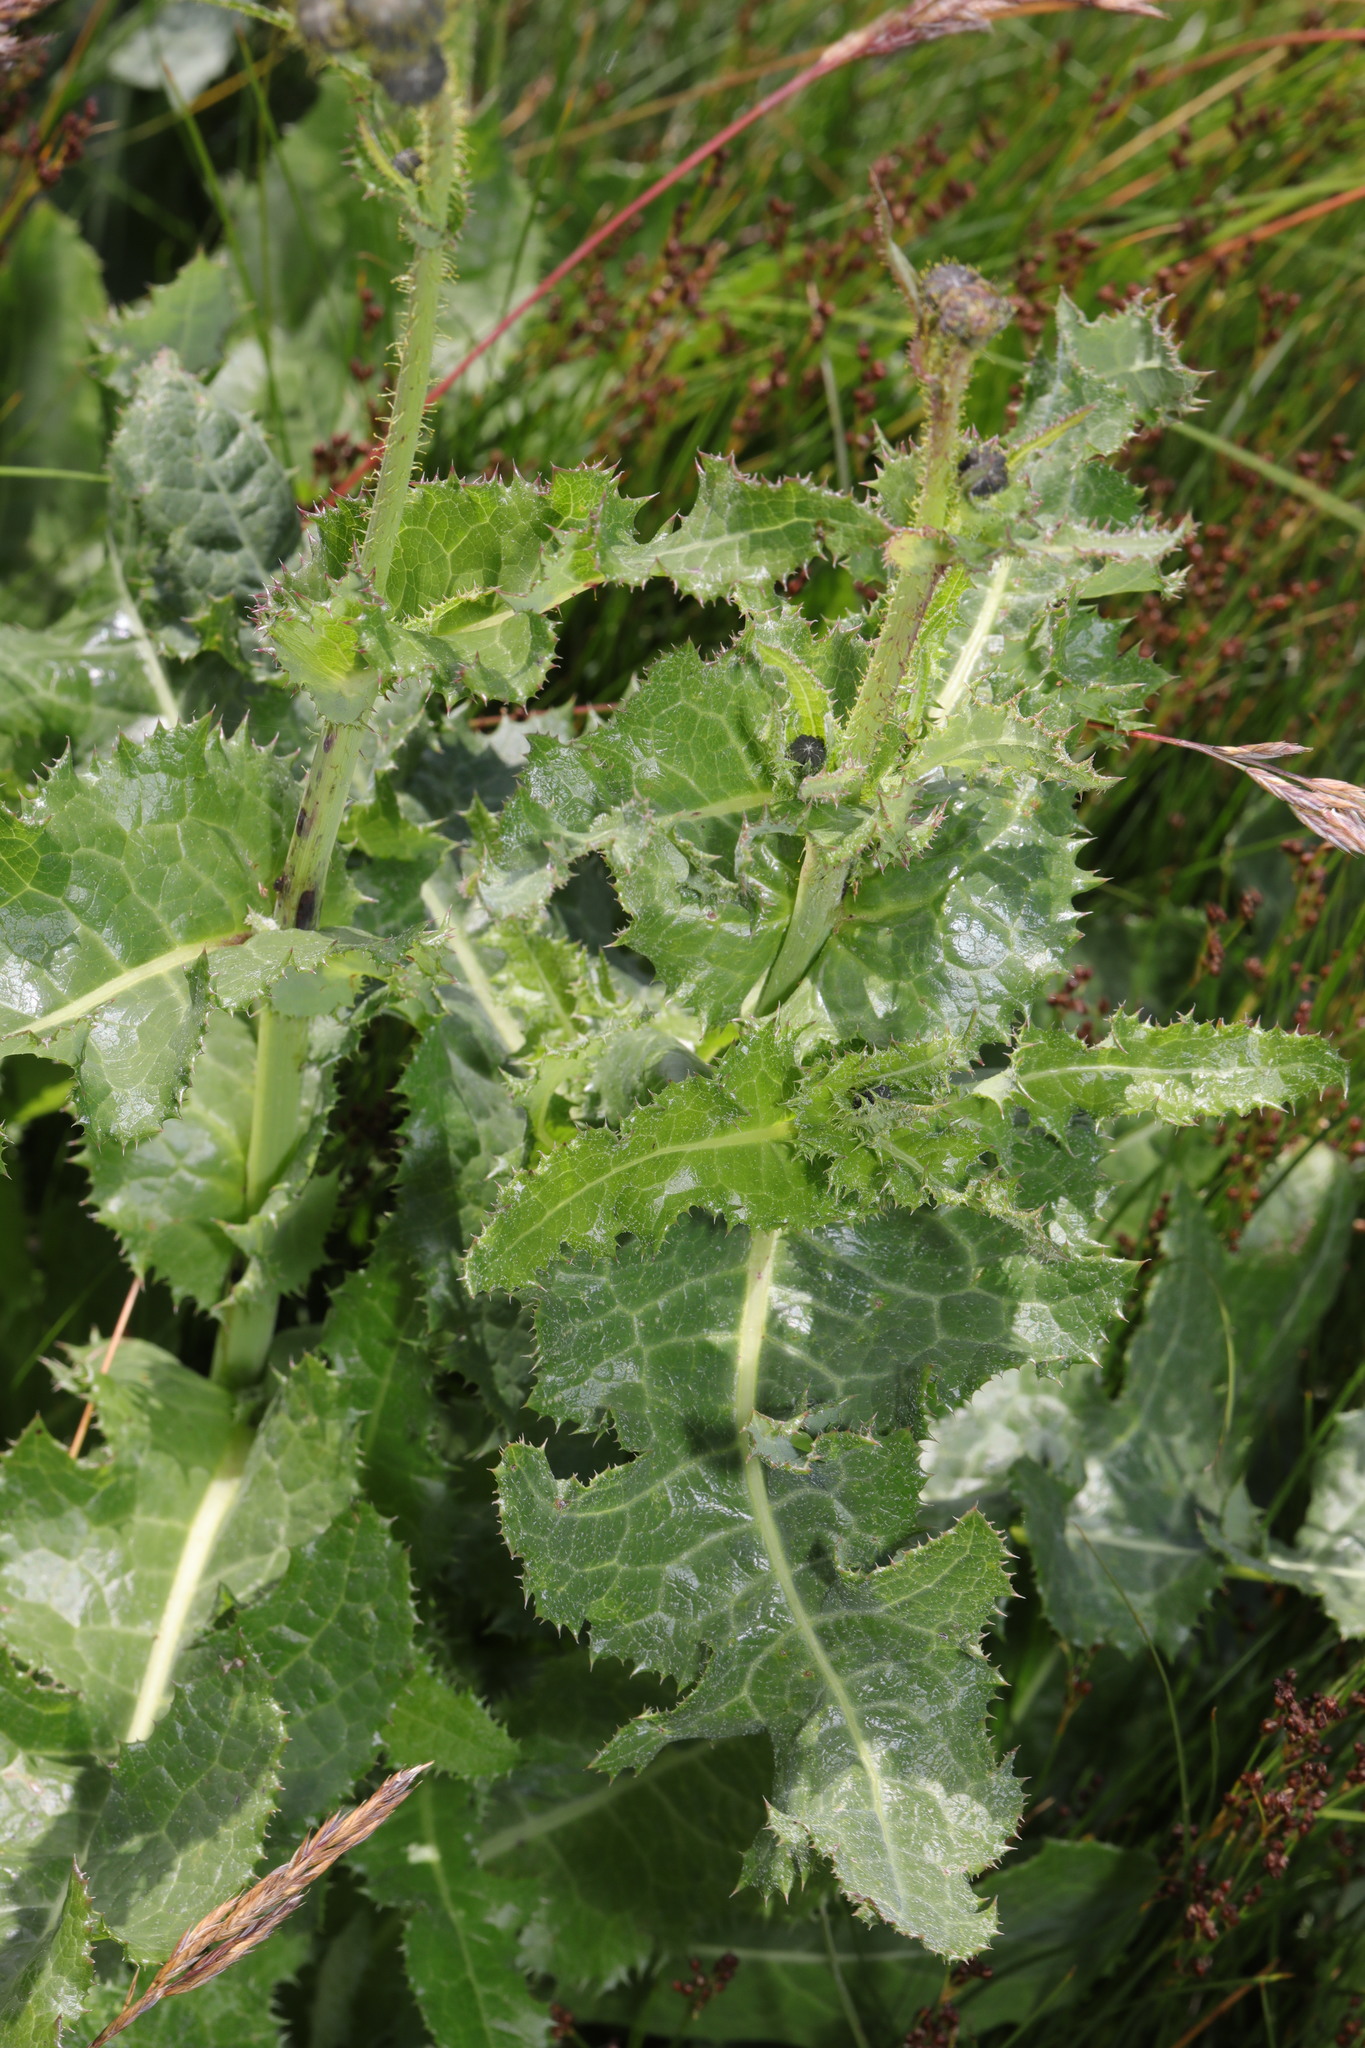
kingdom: Plantae
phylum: Tracheophyta
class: Magnoliopsida
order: Asterales
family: Asteraceae
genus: Sonchus
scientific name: Sonchus asper
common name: Prickly sow-thistle
